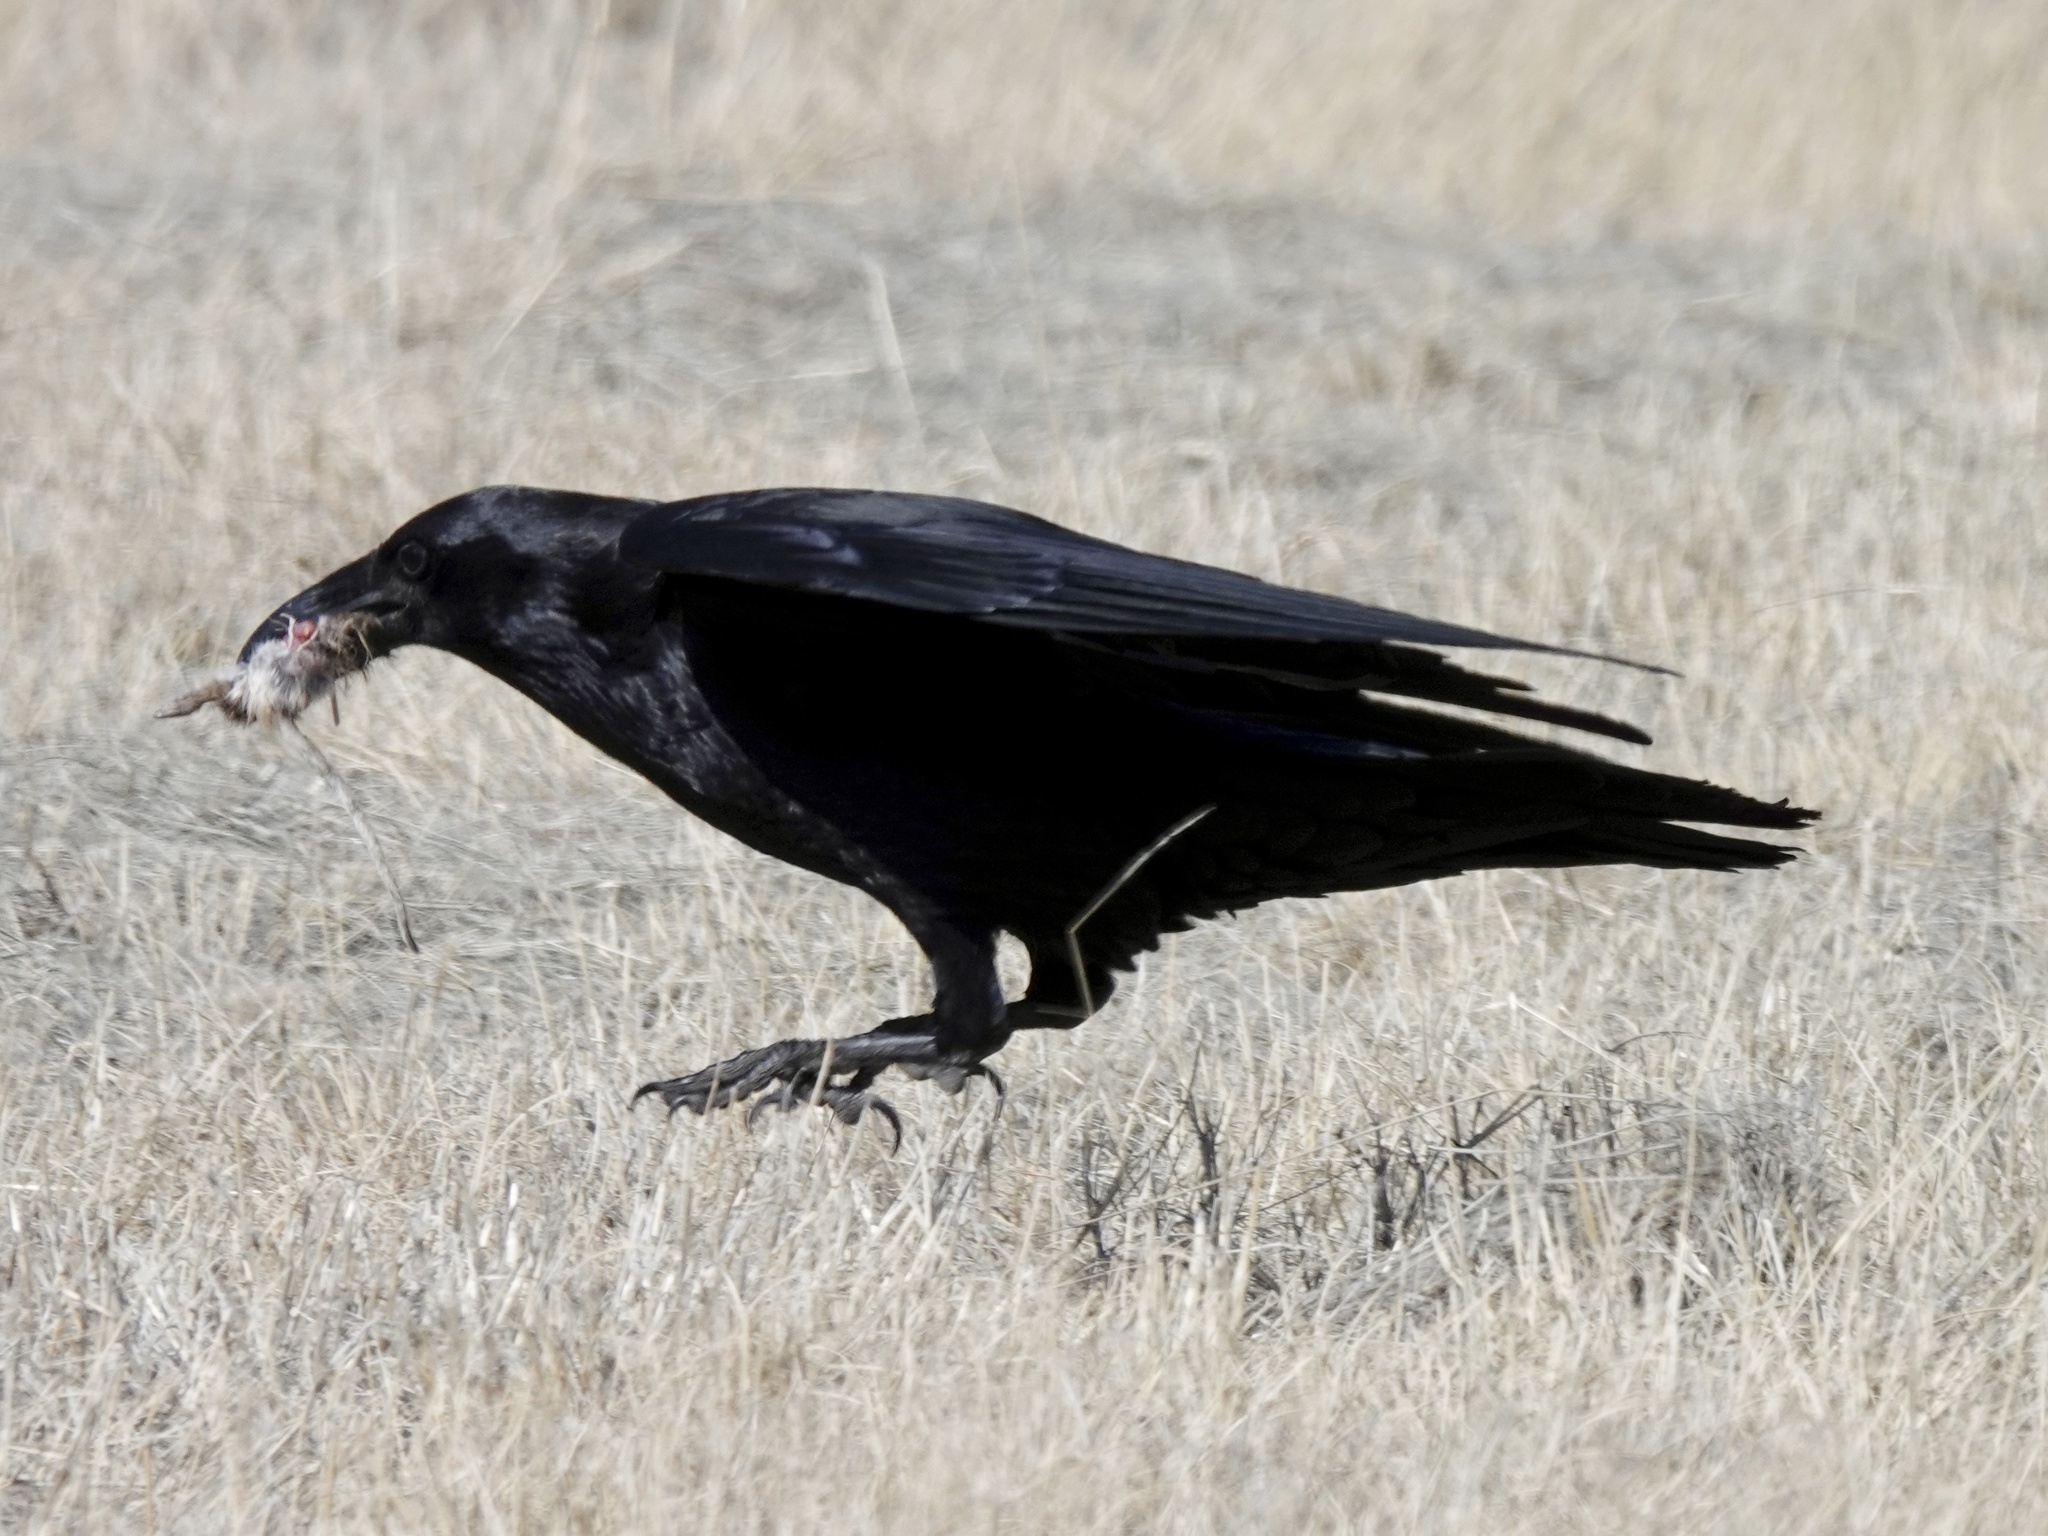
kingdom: Animalia
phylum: Chordata
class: Aves
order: Passeriformes
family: Corvidae
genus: Corvus
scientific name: Corvus corax
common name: Common raven
